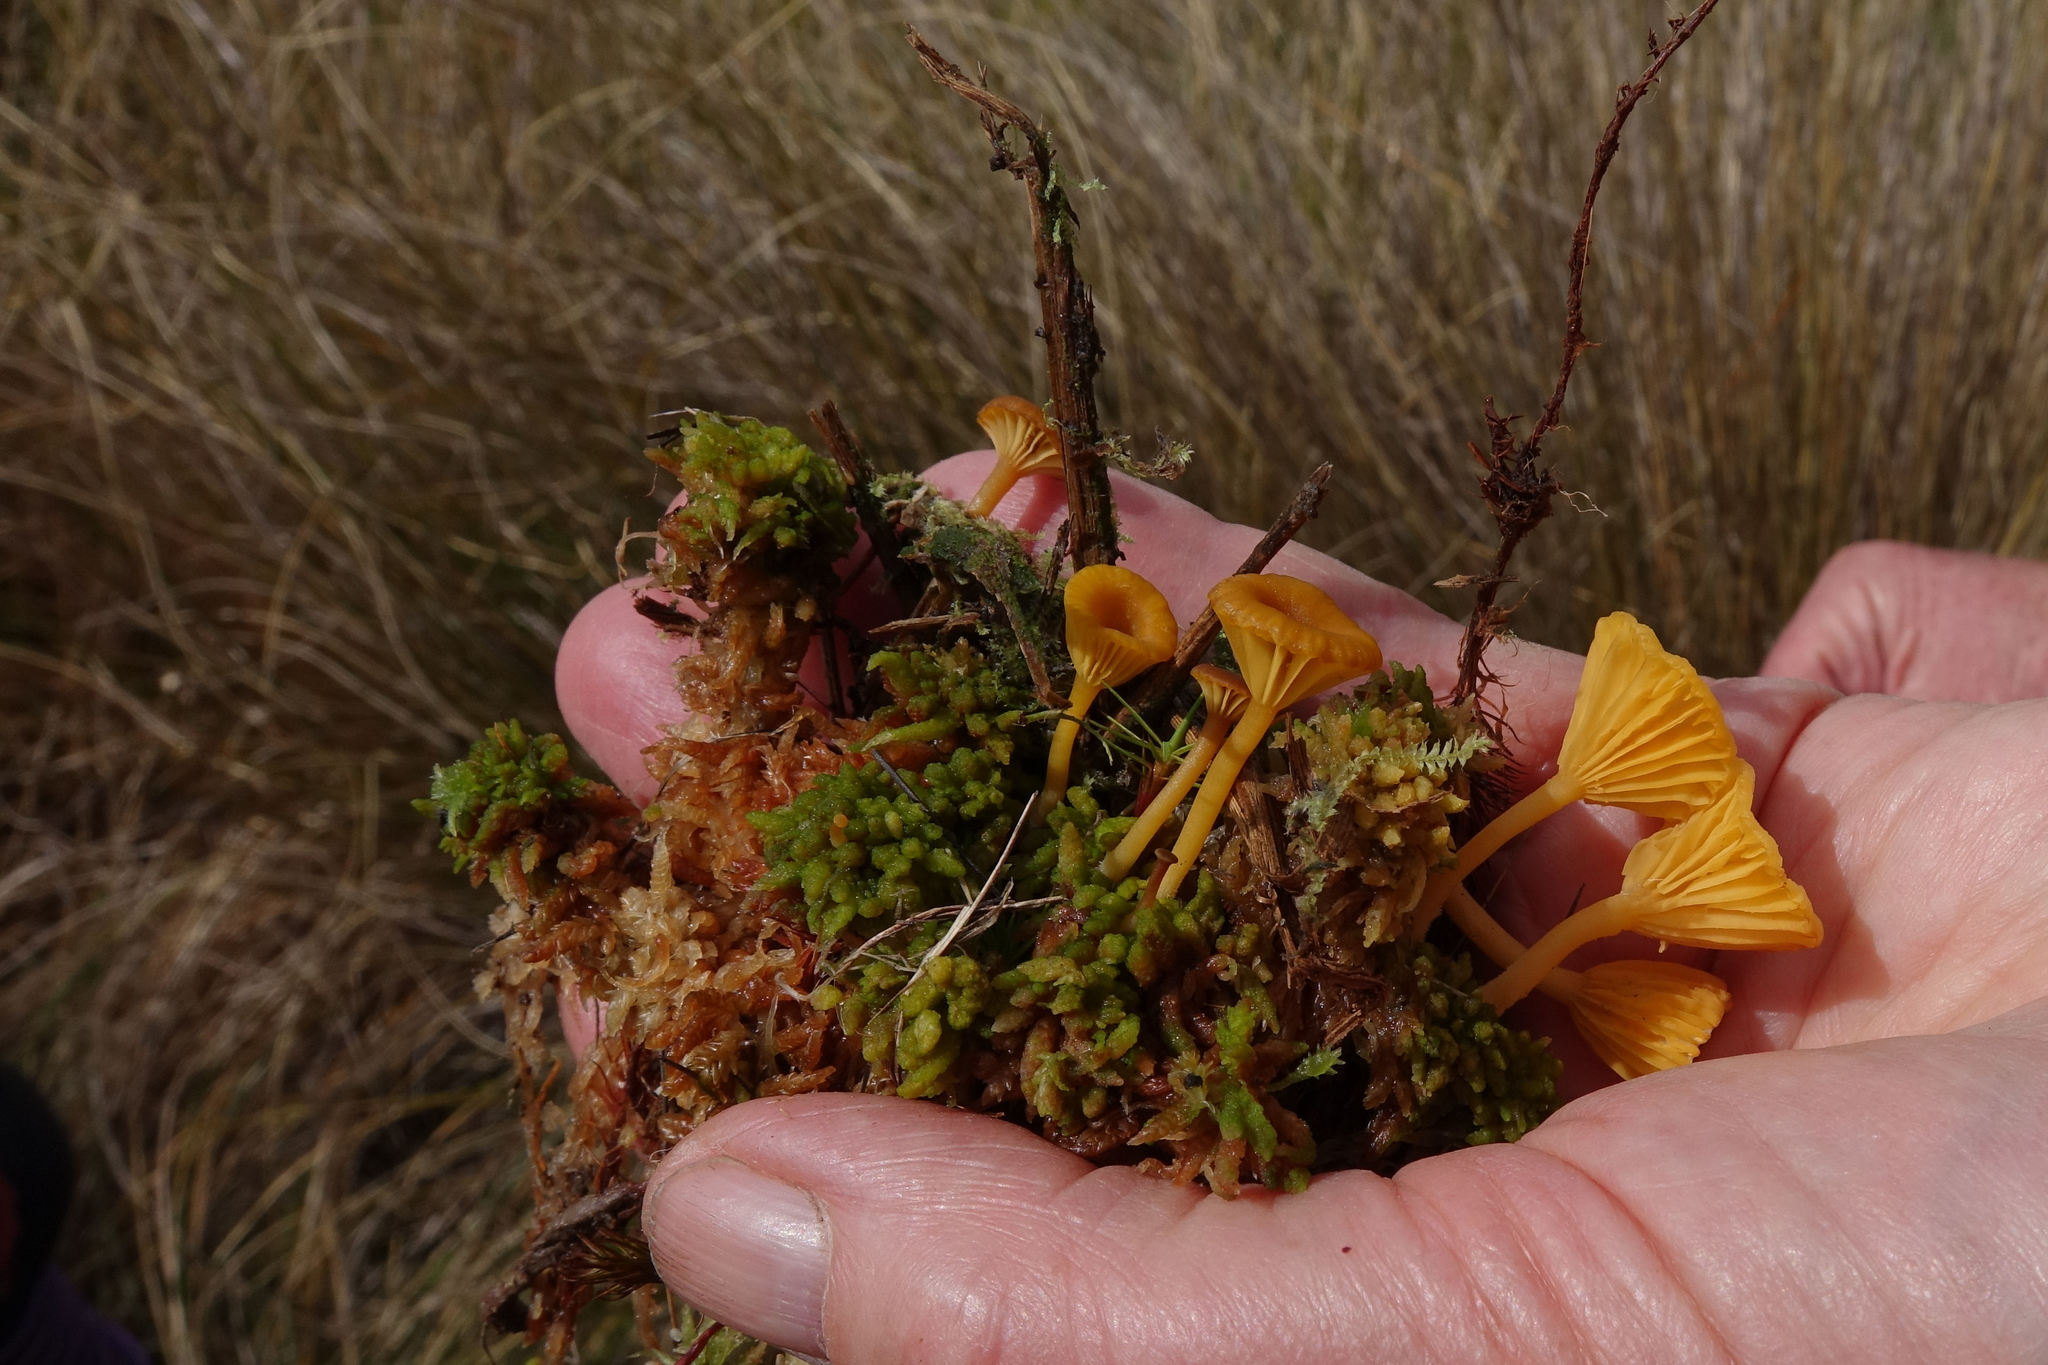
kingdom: Fungi
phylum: Basidiomycota
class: Agaricomycetes
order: Agaricales
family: Hygrophoraceae
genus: Lichenomphalia
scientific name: Lichenomphalia chromacea
